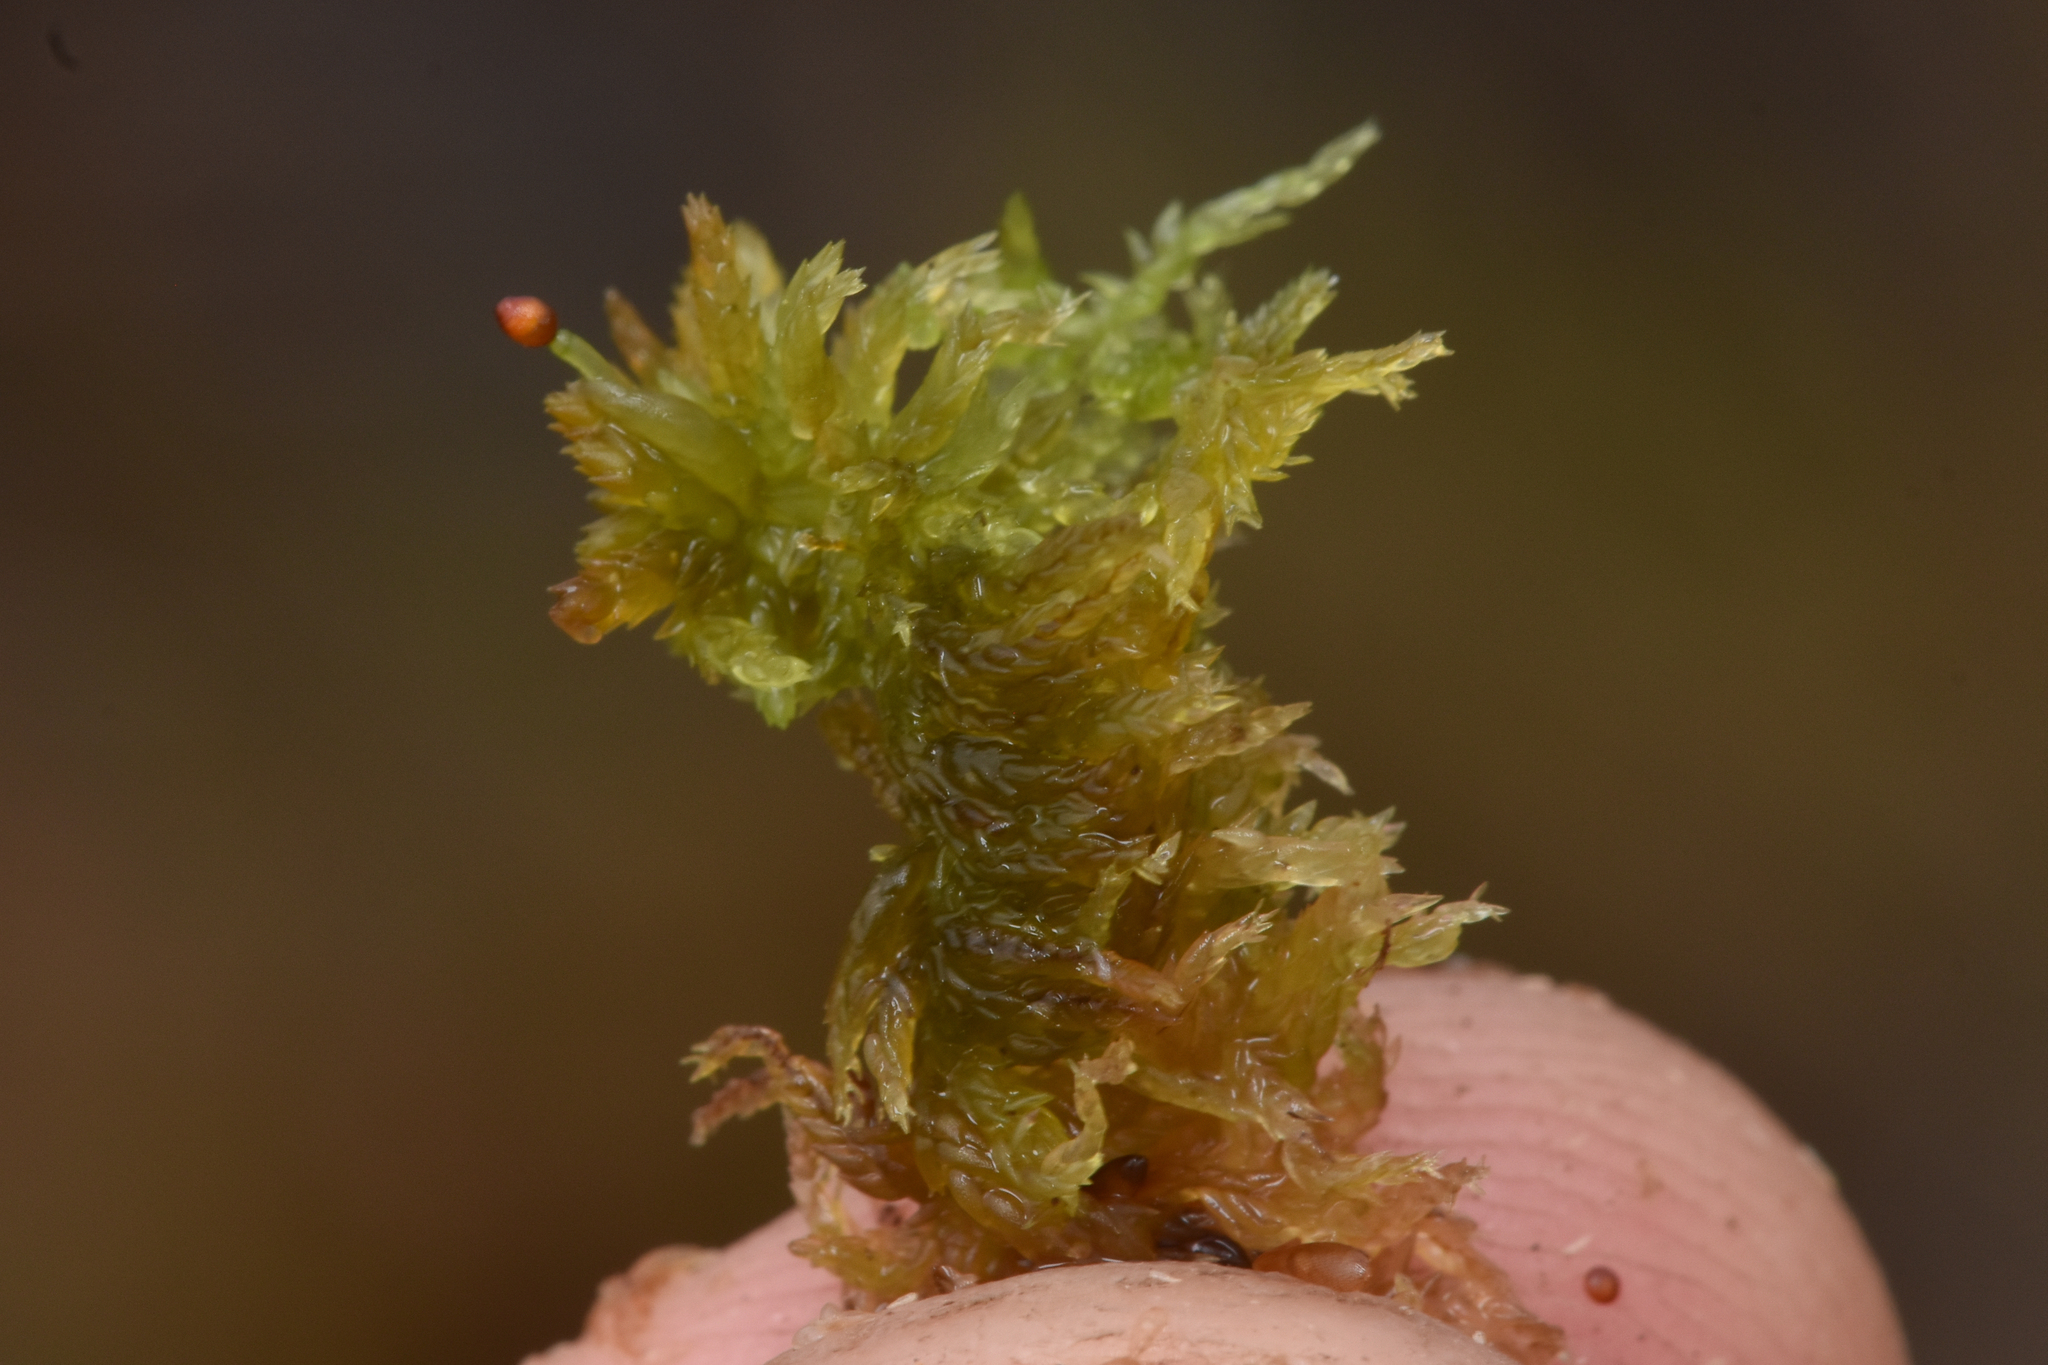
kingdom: Plantae
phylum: Bryophyta
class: Sphagnopsida
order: Sphagnales
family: Sphagnaceae
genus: Sphagnum
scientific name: Sphagnum tenellum
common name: Soft bog-moss
